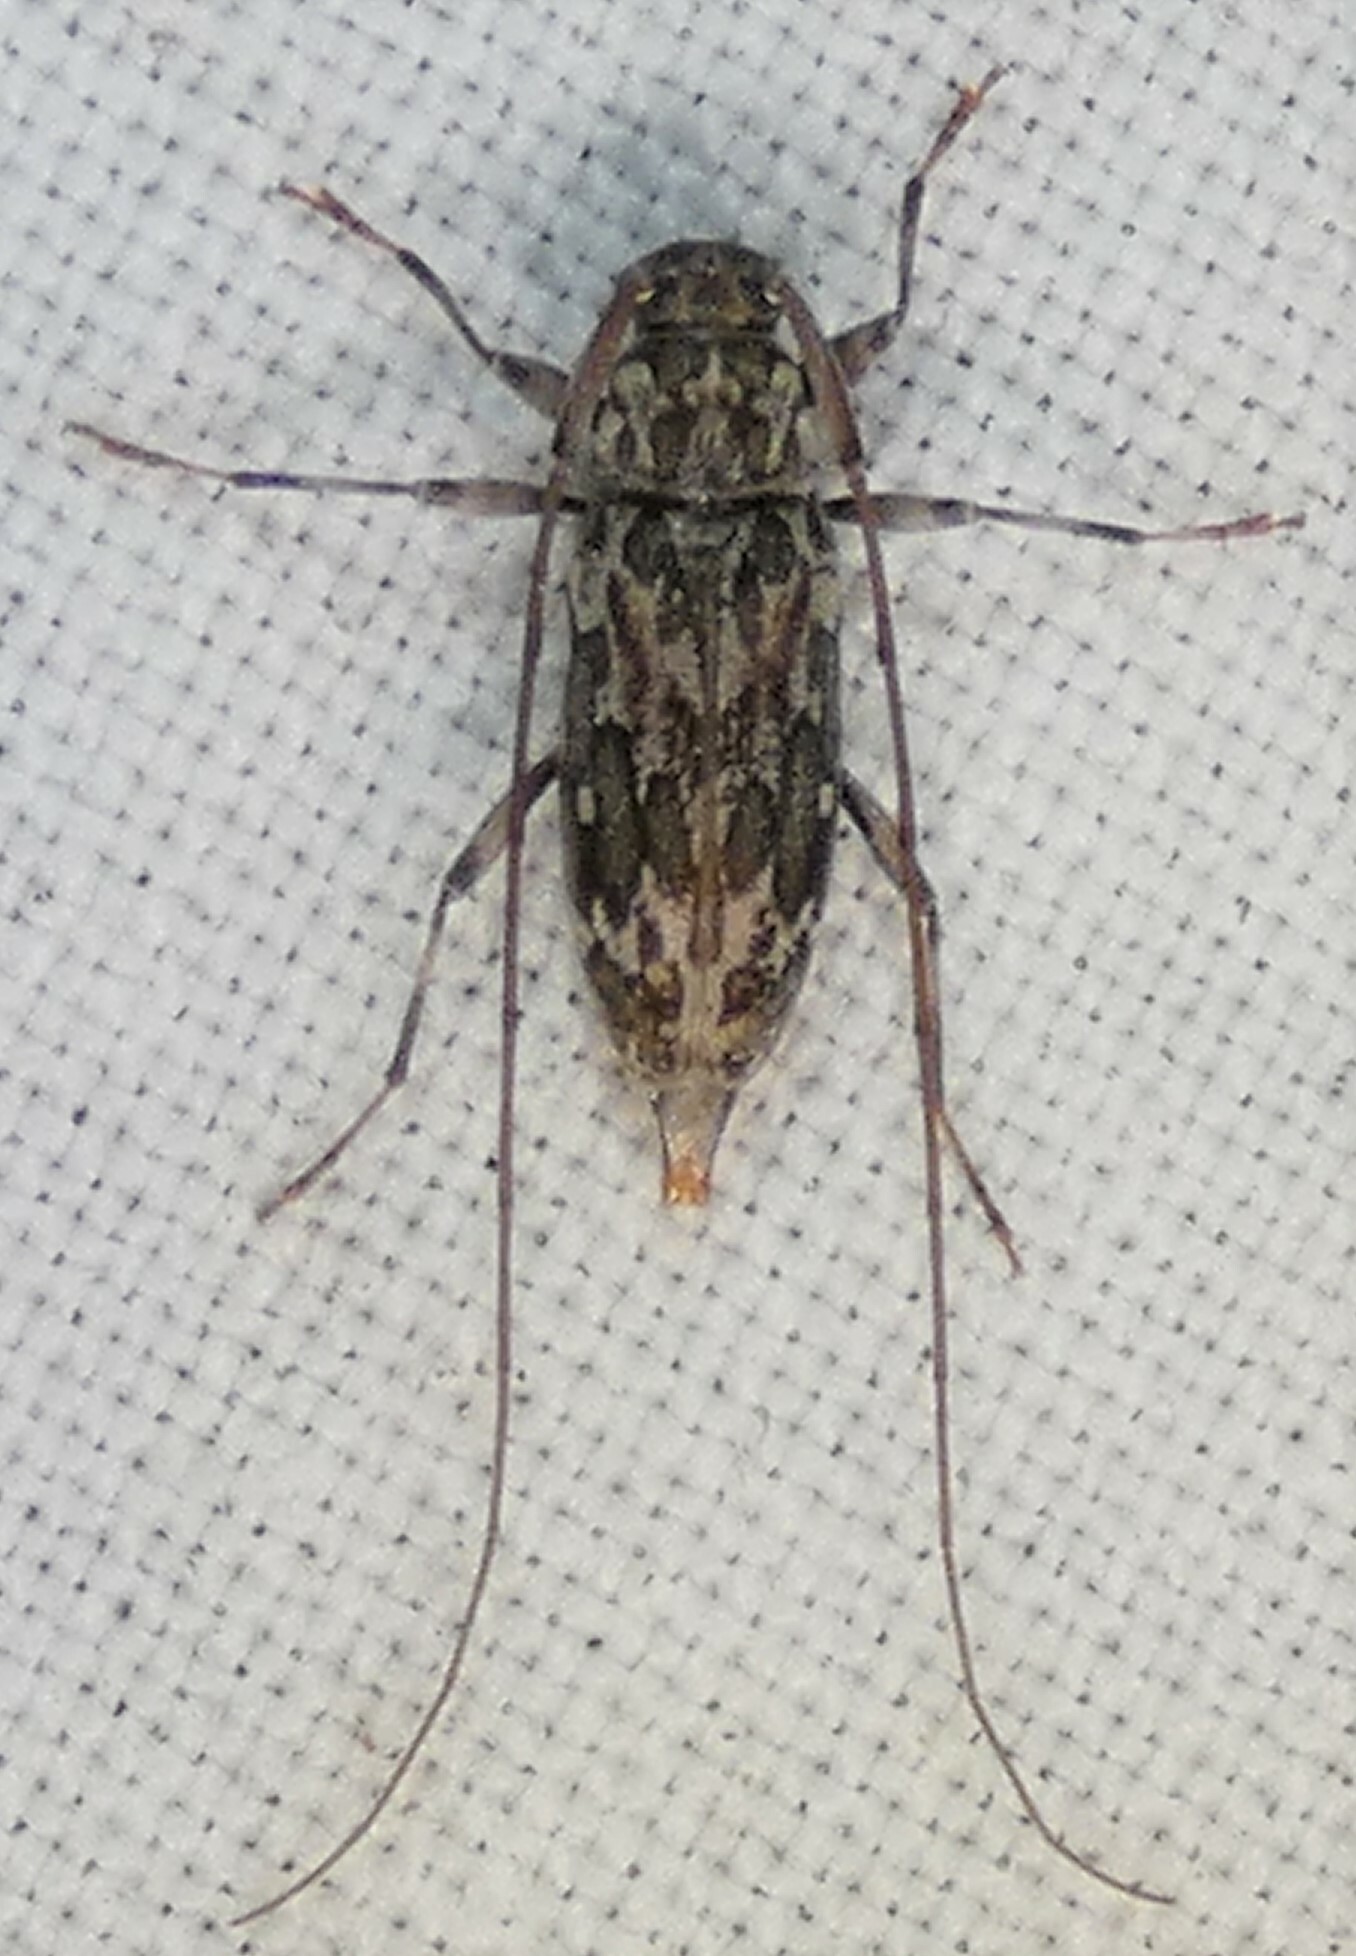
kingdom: Animalia
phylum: Arthropoda
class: Insecta
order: Coleoptera
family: Cerambycidae
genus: Lepturges
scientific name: Lepturges confluens
